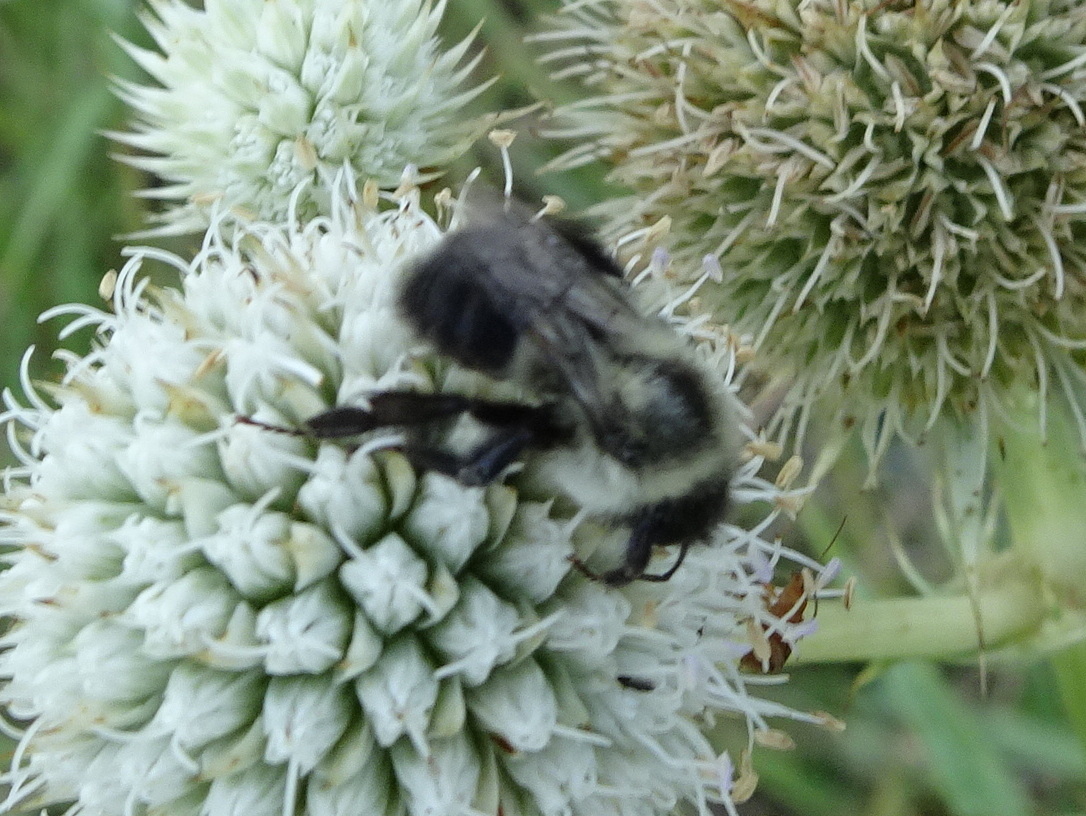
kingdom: Animalia
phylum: Arthropoda
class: Insecta
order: Hymenoptera
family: Apidae
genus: Bombus
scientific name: Bombus impatiens
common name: Common eastern bumble bee
